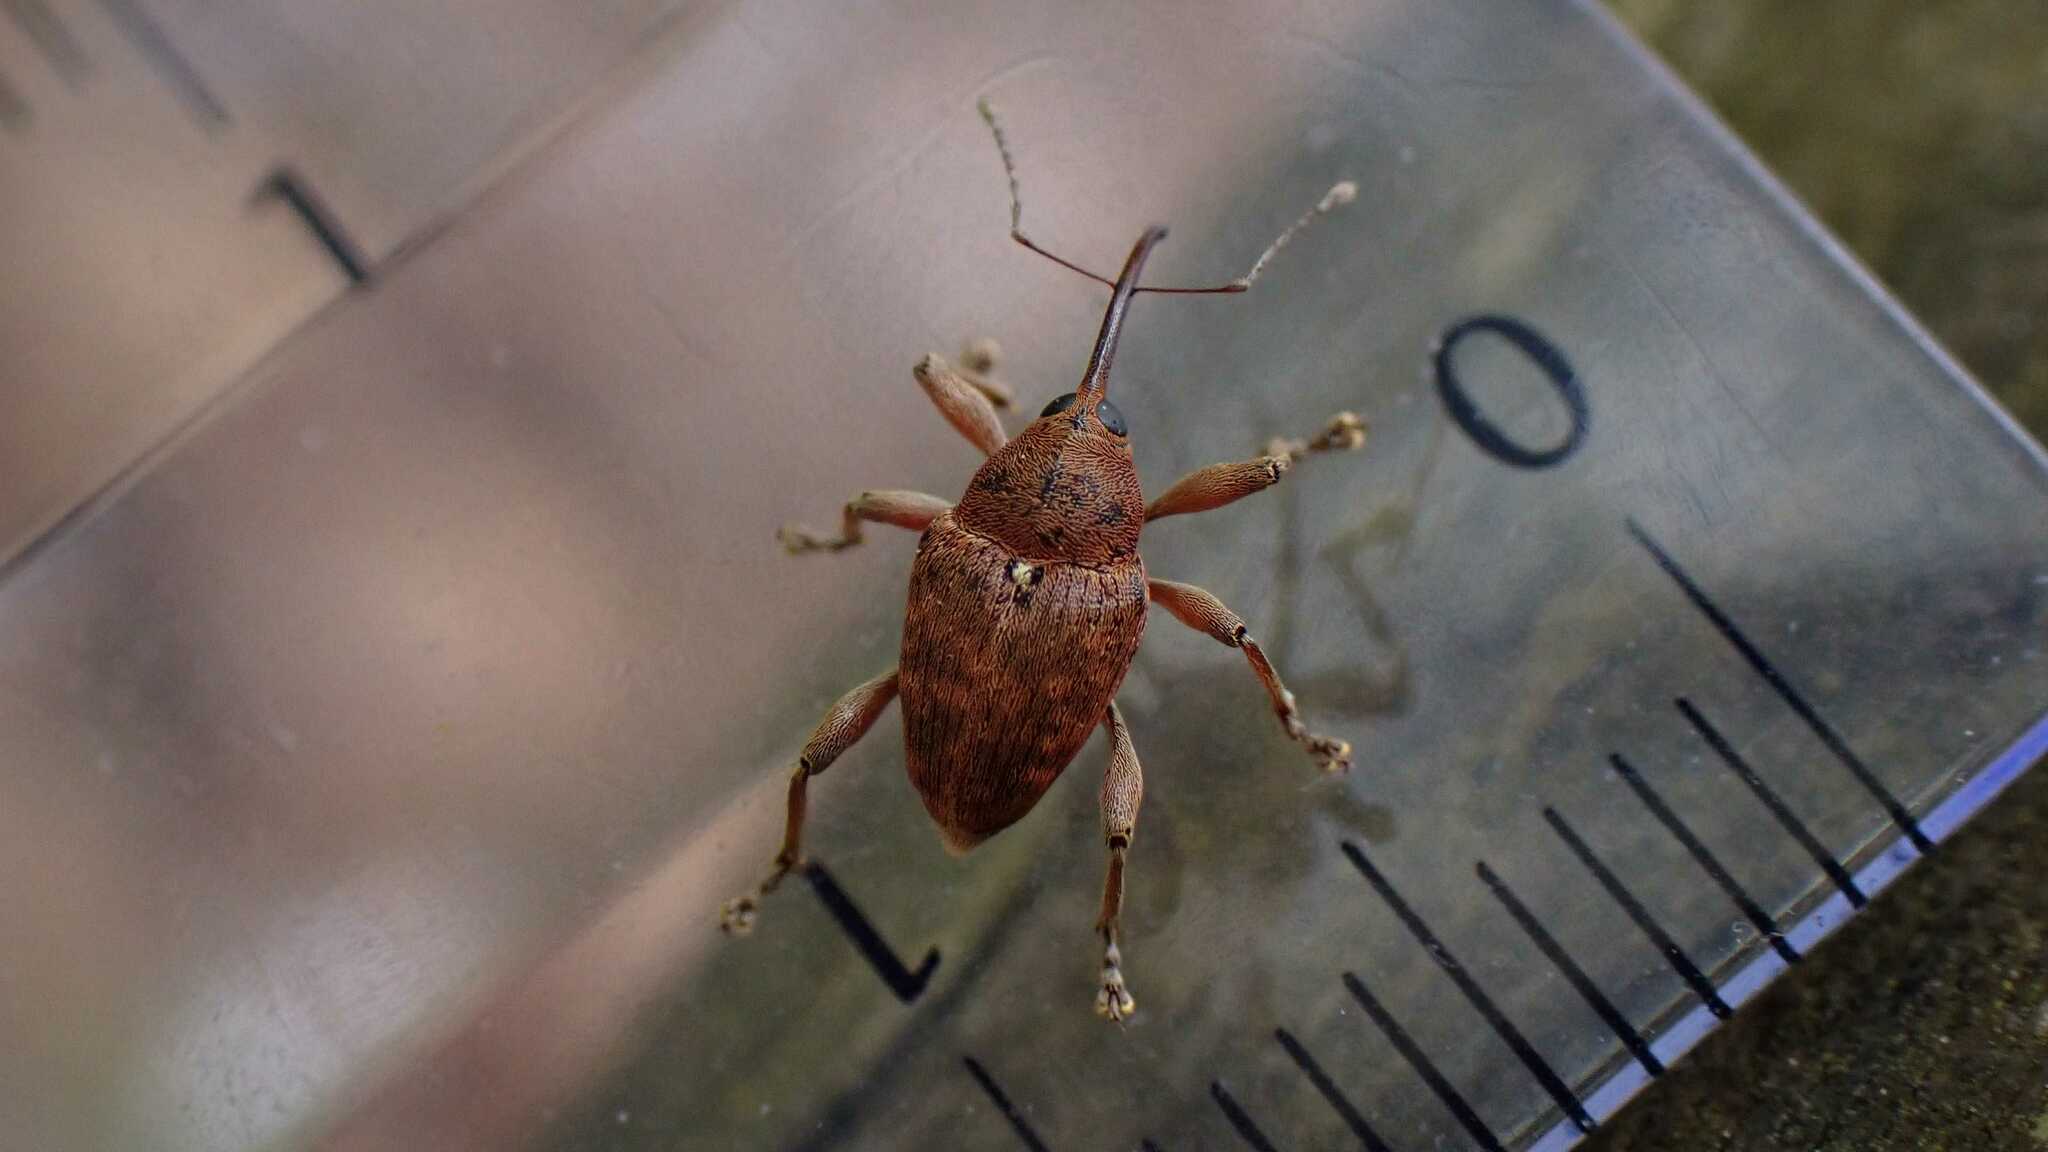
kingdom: Animalia
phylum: Arthropoda
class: Insecta
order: Coleoptera
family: Curculionidae
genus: Curculio
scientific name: Curculio glandium
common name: Acorn weevil
